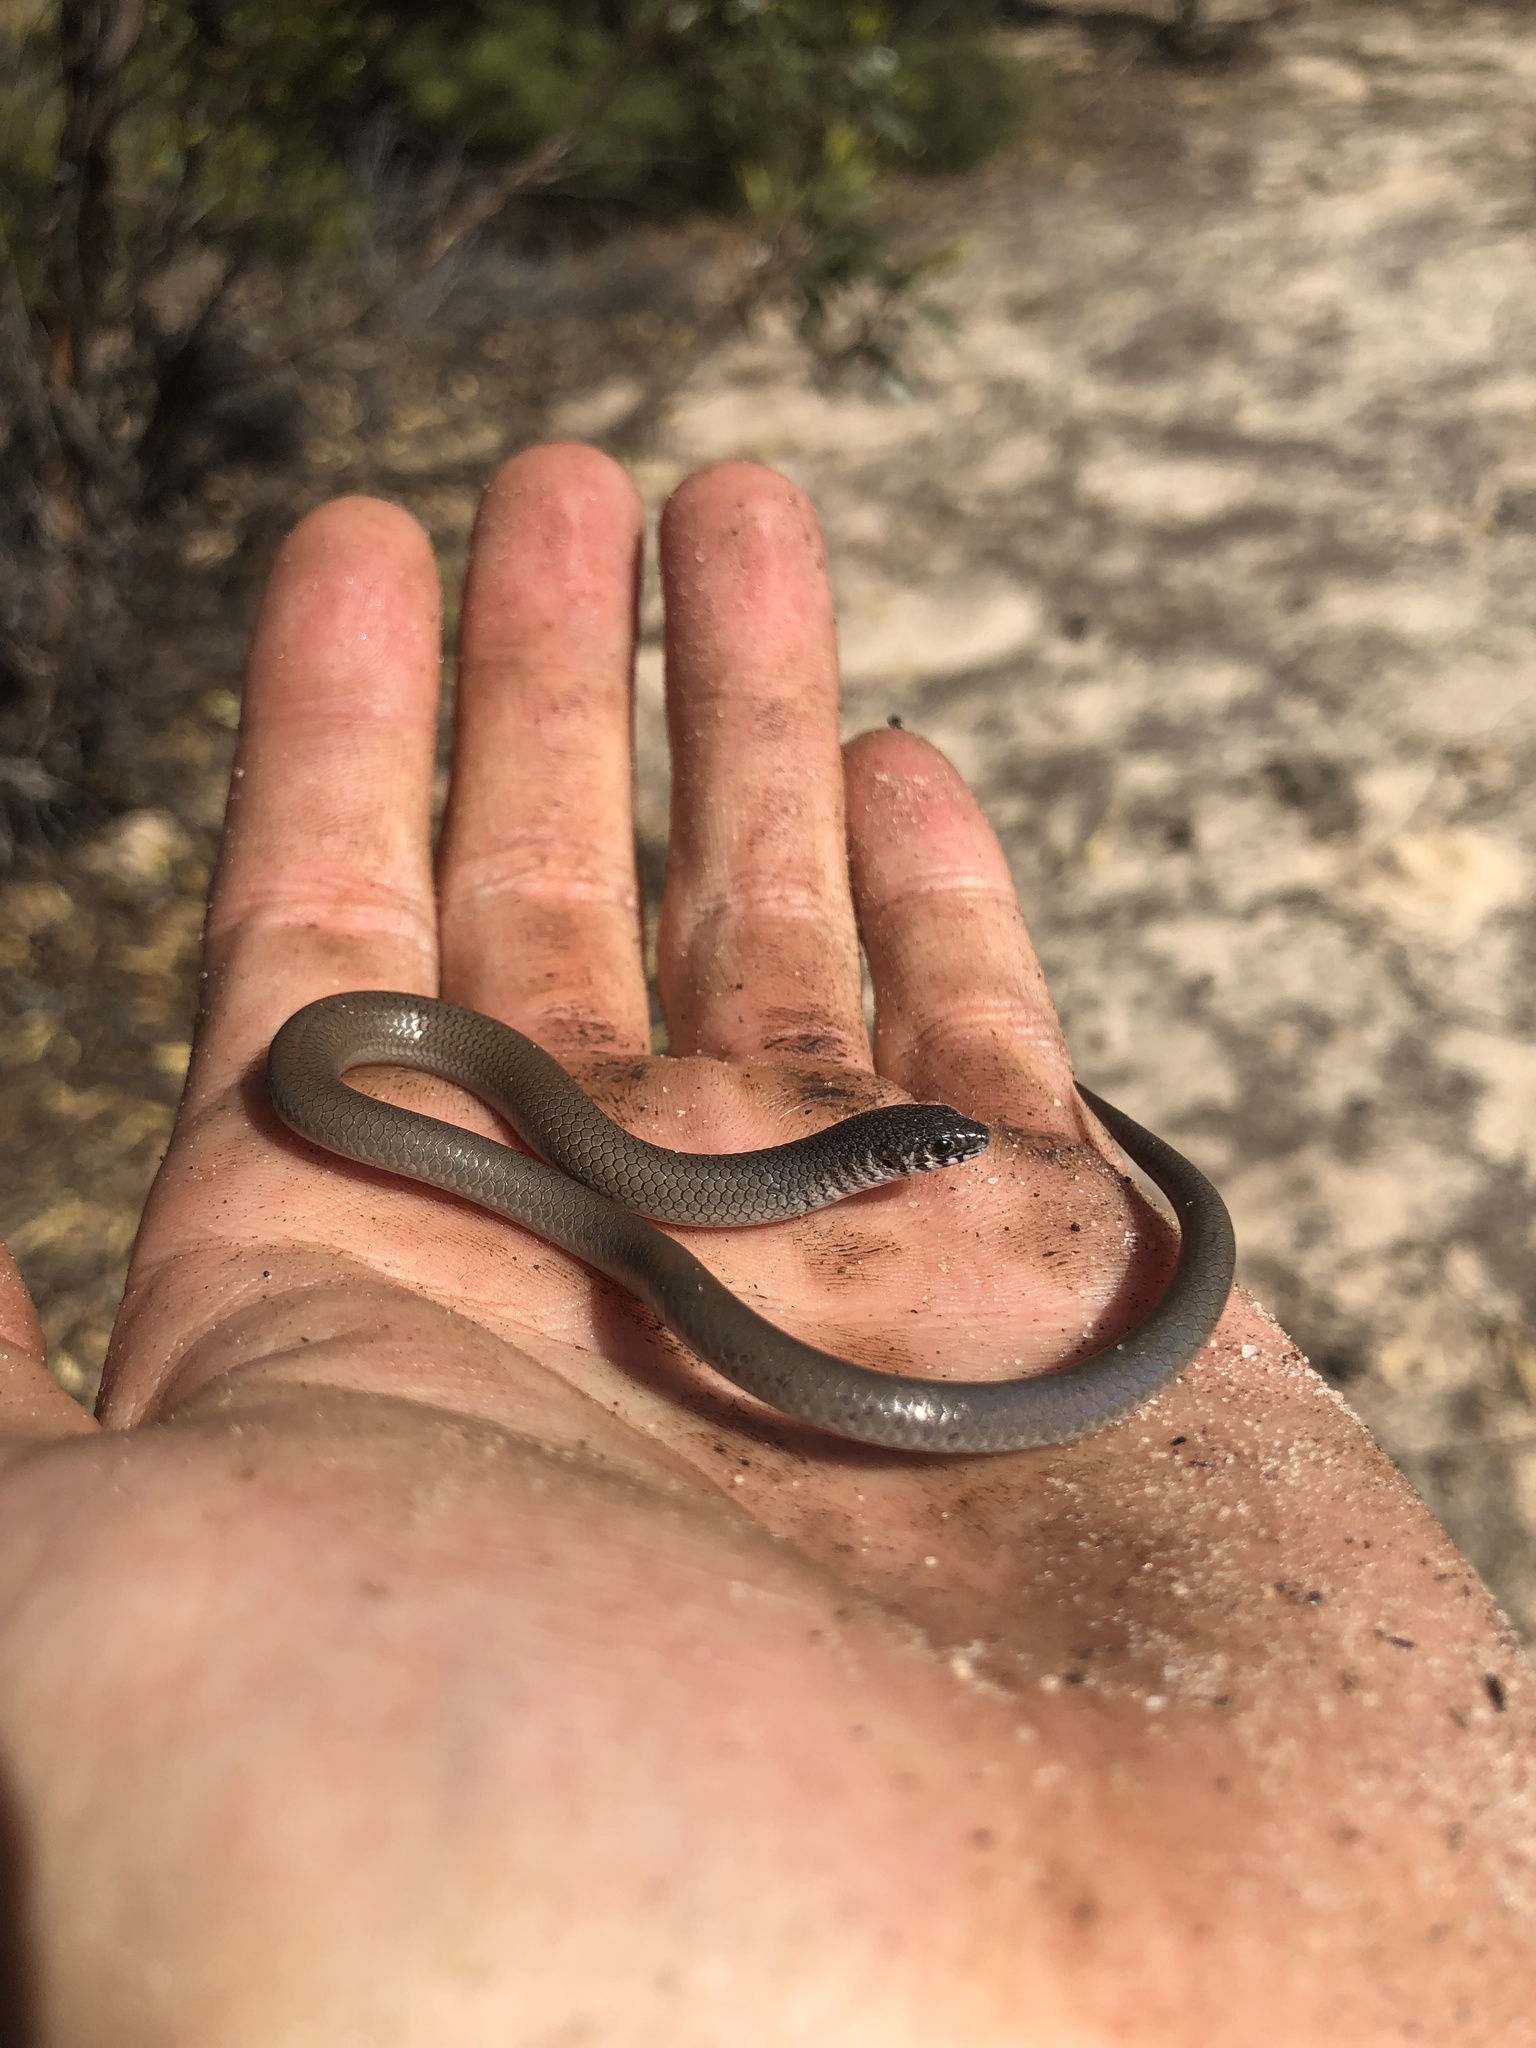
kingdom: Animalia
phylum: Chordata
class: Squamata
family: Pygopodidae
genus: Delma
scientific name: Delma australis
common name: Marble-faced delma
